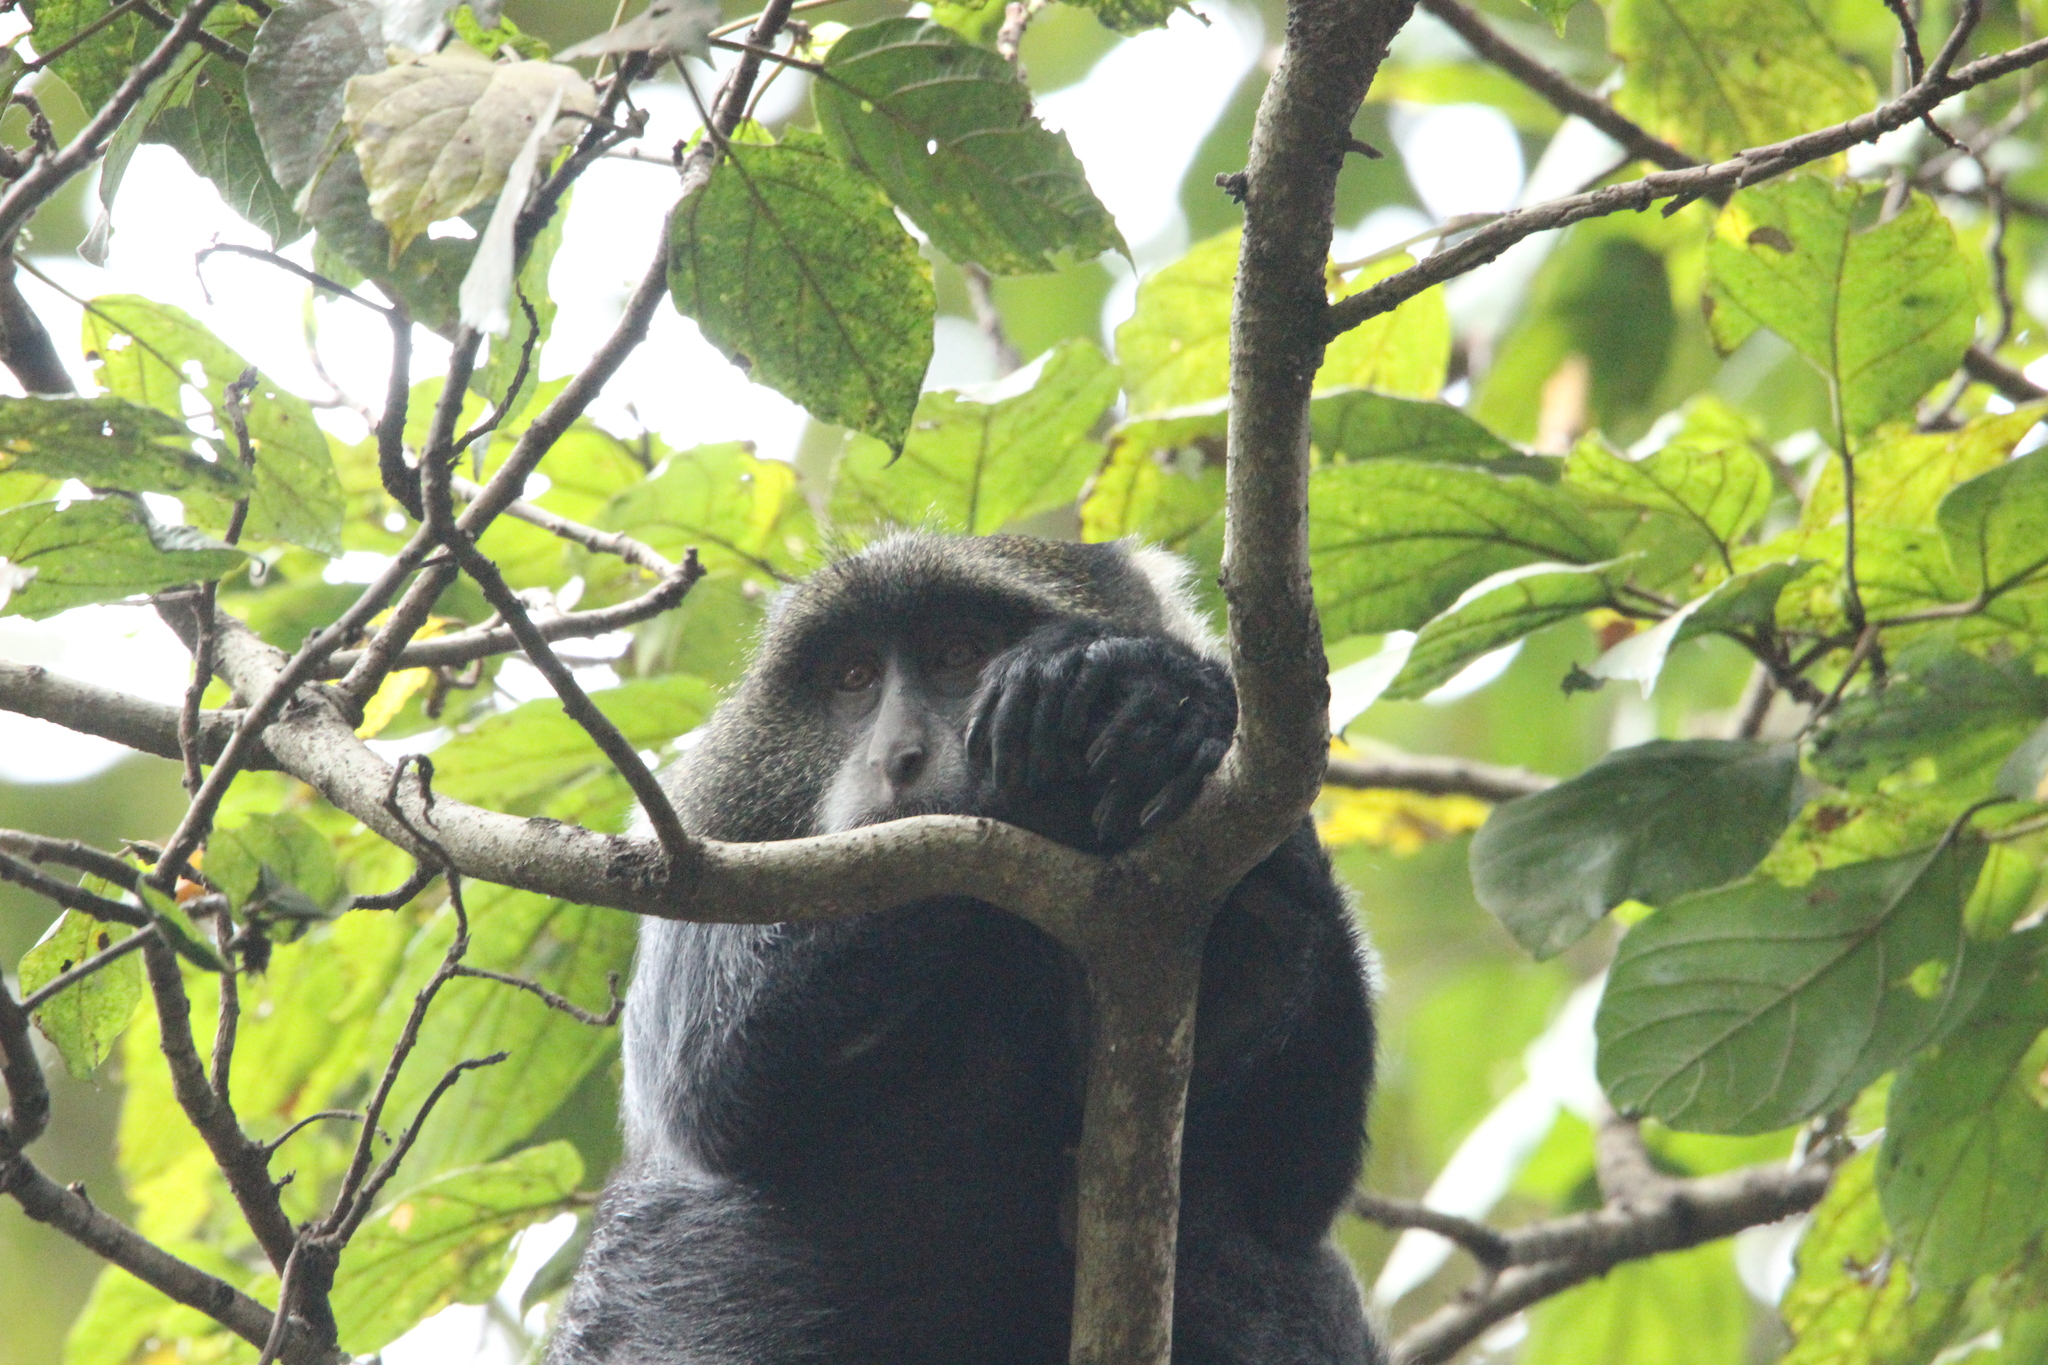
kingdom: Animalia
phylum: Chordata
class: Mammalia
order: Primates
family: Cercopithecidae
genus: Cercopithecus
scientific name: Cercopithecus mitis
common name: Blue monkey
